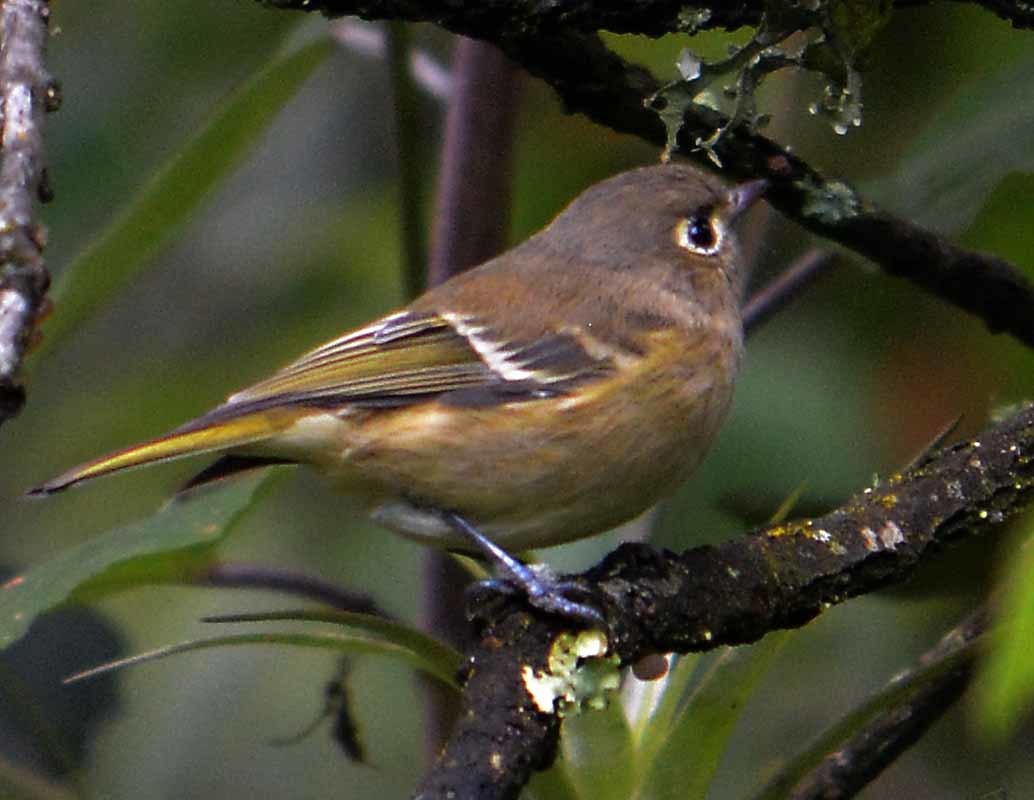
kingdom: Animalia
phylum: Chordata
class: Aves
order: Passeriformes
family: Vireonidae
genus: Vireo
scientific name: Vireo huttoni
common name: Hutton's vireo
